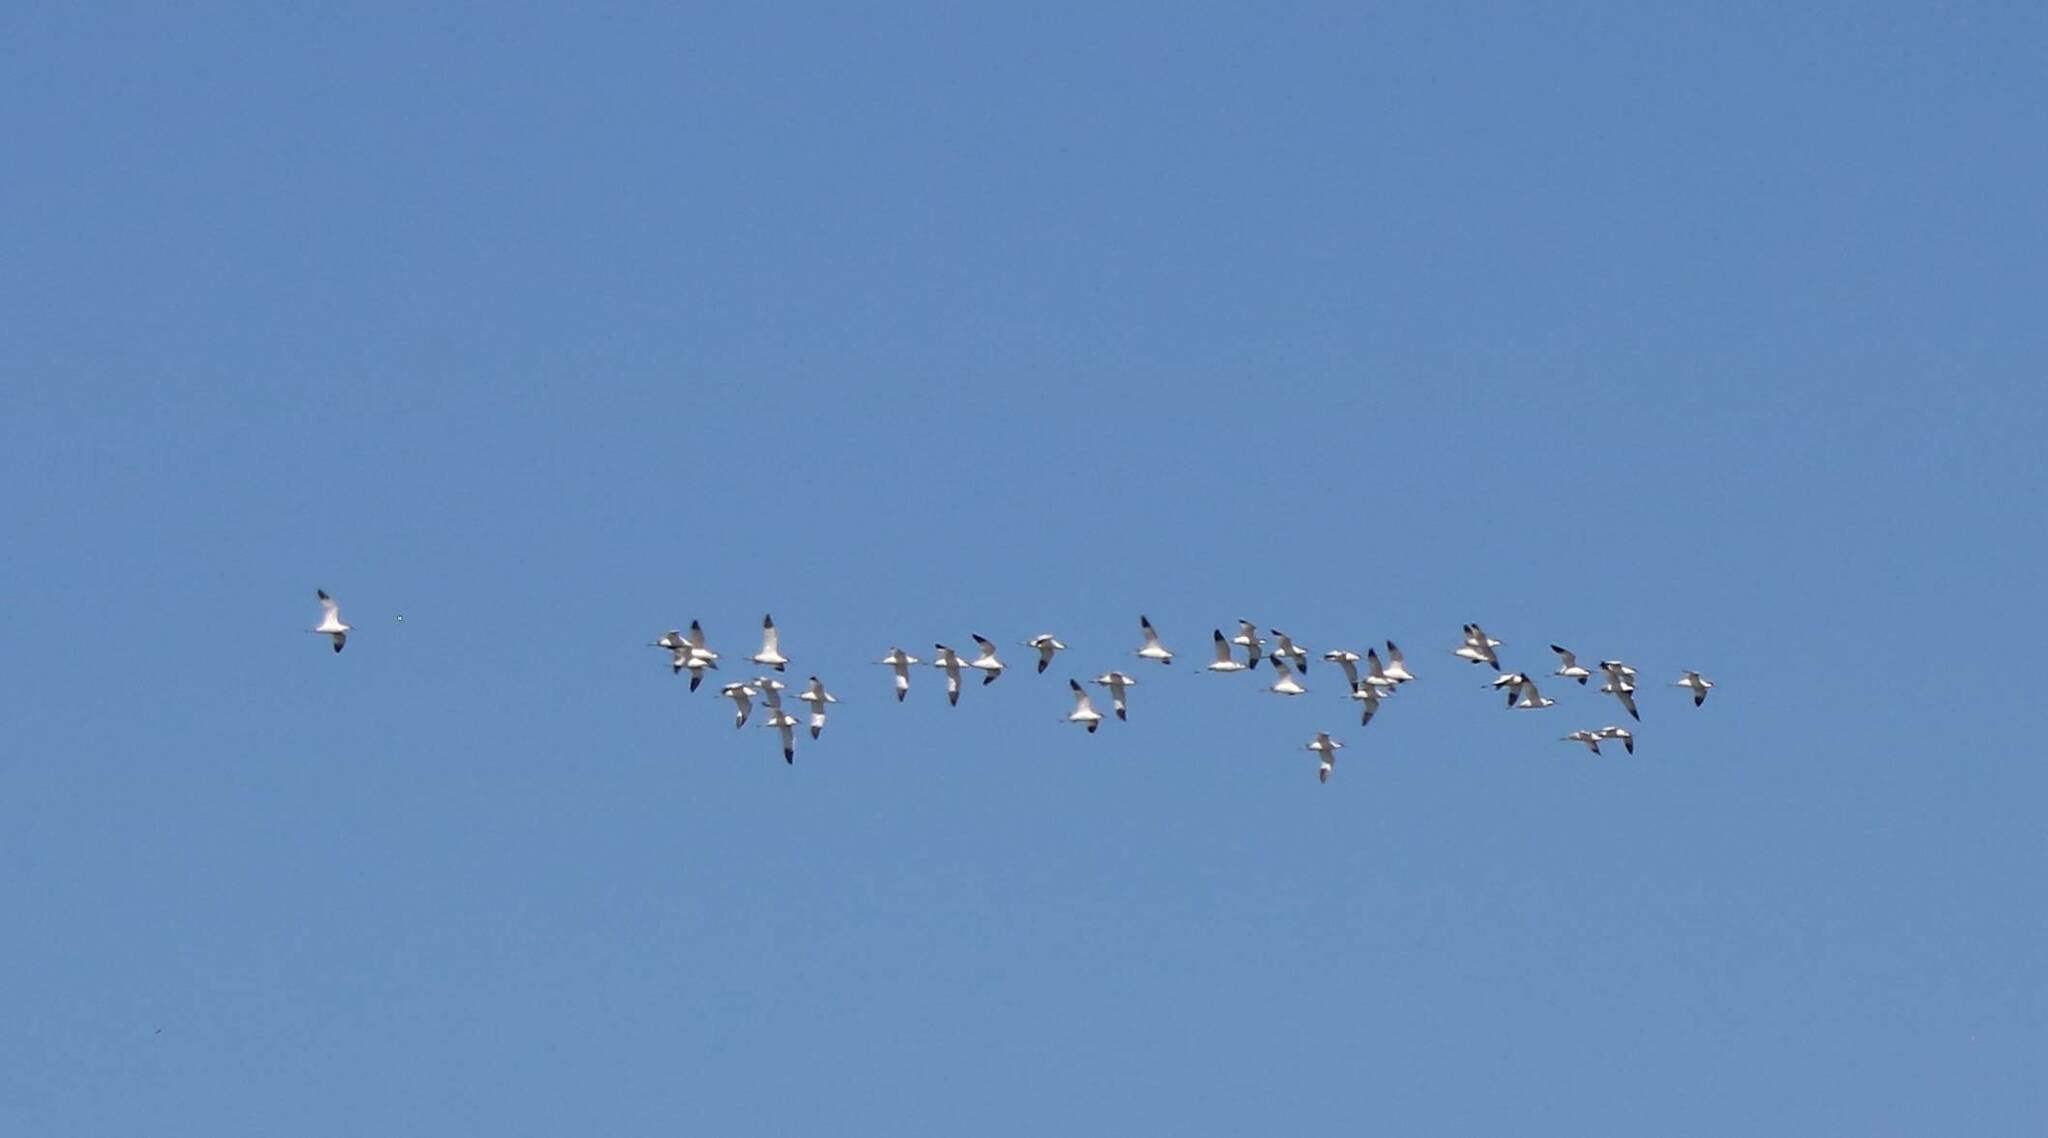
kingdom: Animalia
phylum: Chordata
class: Aves
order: Charadriiformes
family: Recurvirostridae
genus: Recurvirostra
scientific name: Recurvirostra avosetta
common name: Pied avocet
